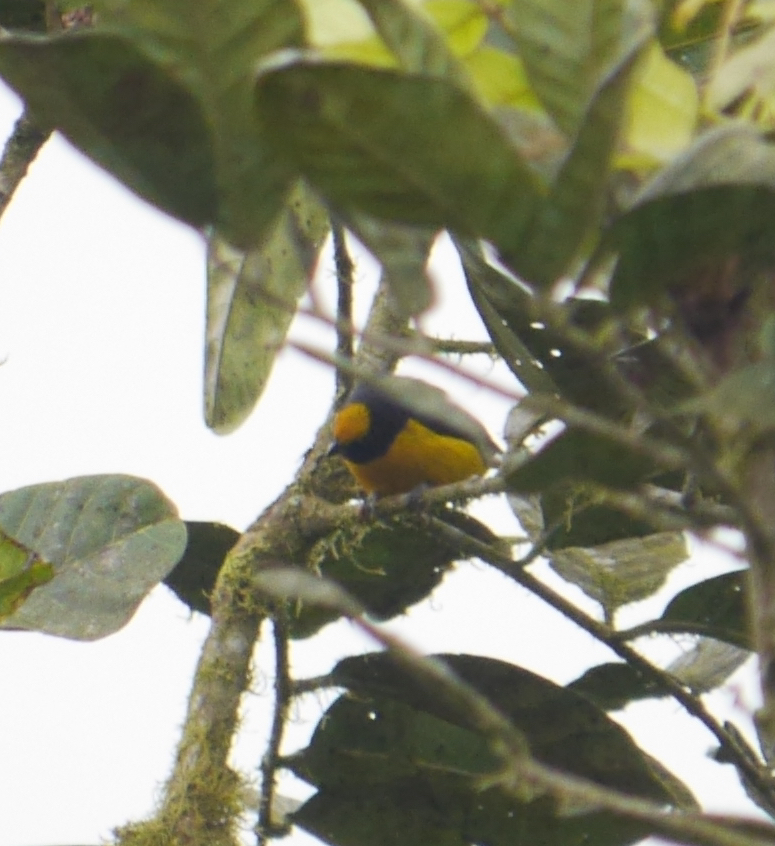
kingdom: Animalia
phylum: Chordata
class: Aves
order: Passeriformes
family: Fringillidae
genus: Euphonia
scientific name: Euphonia xanthogaster
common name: Orange-bellied euphonia
